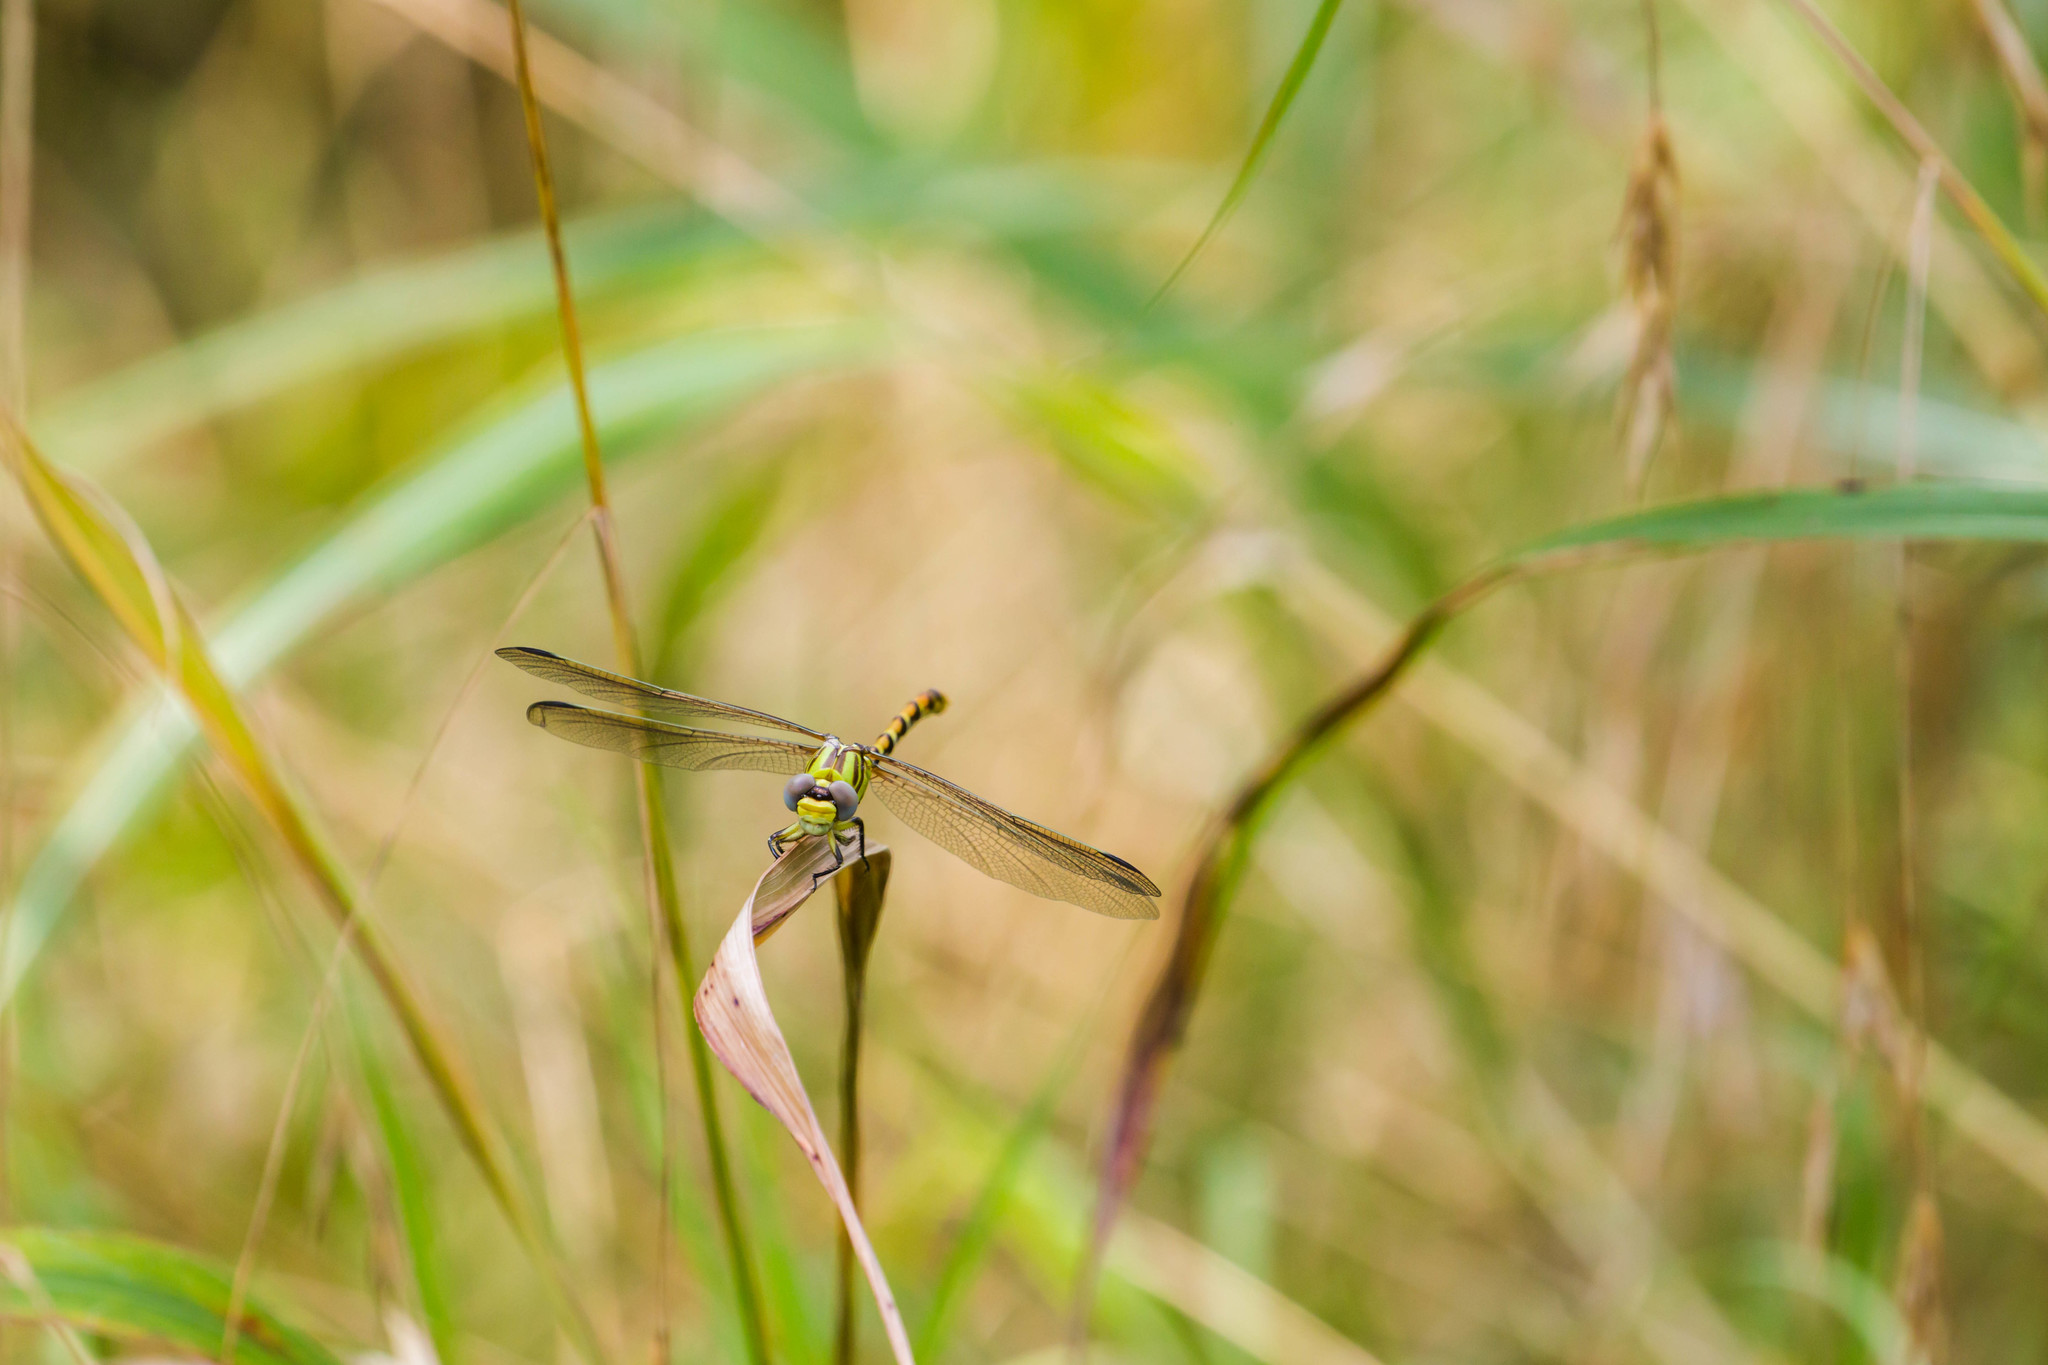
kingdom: Animalia
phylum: Arthropoda
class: Insecta
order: Odonata
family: Gomphidae
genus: Erpetogomphus
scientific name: Erpetogomphus designatus
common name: Eastern ringtail
